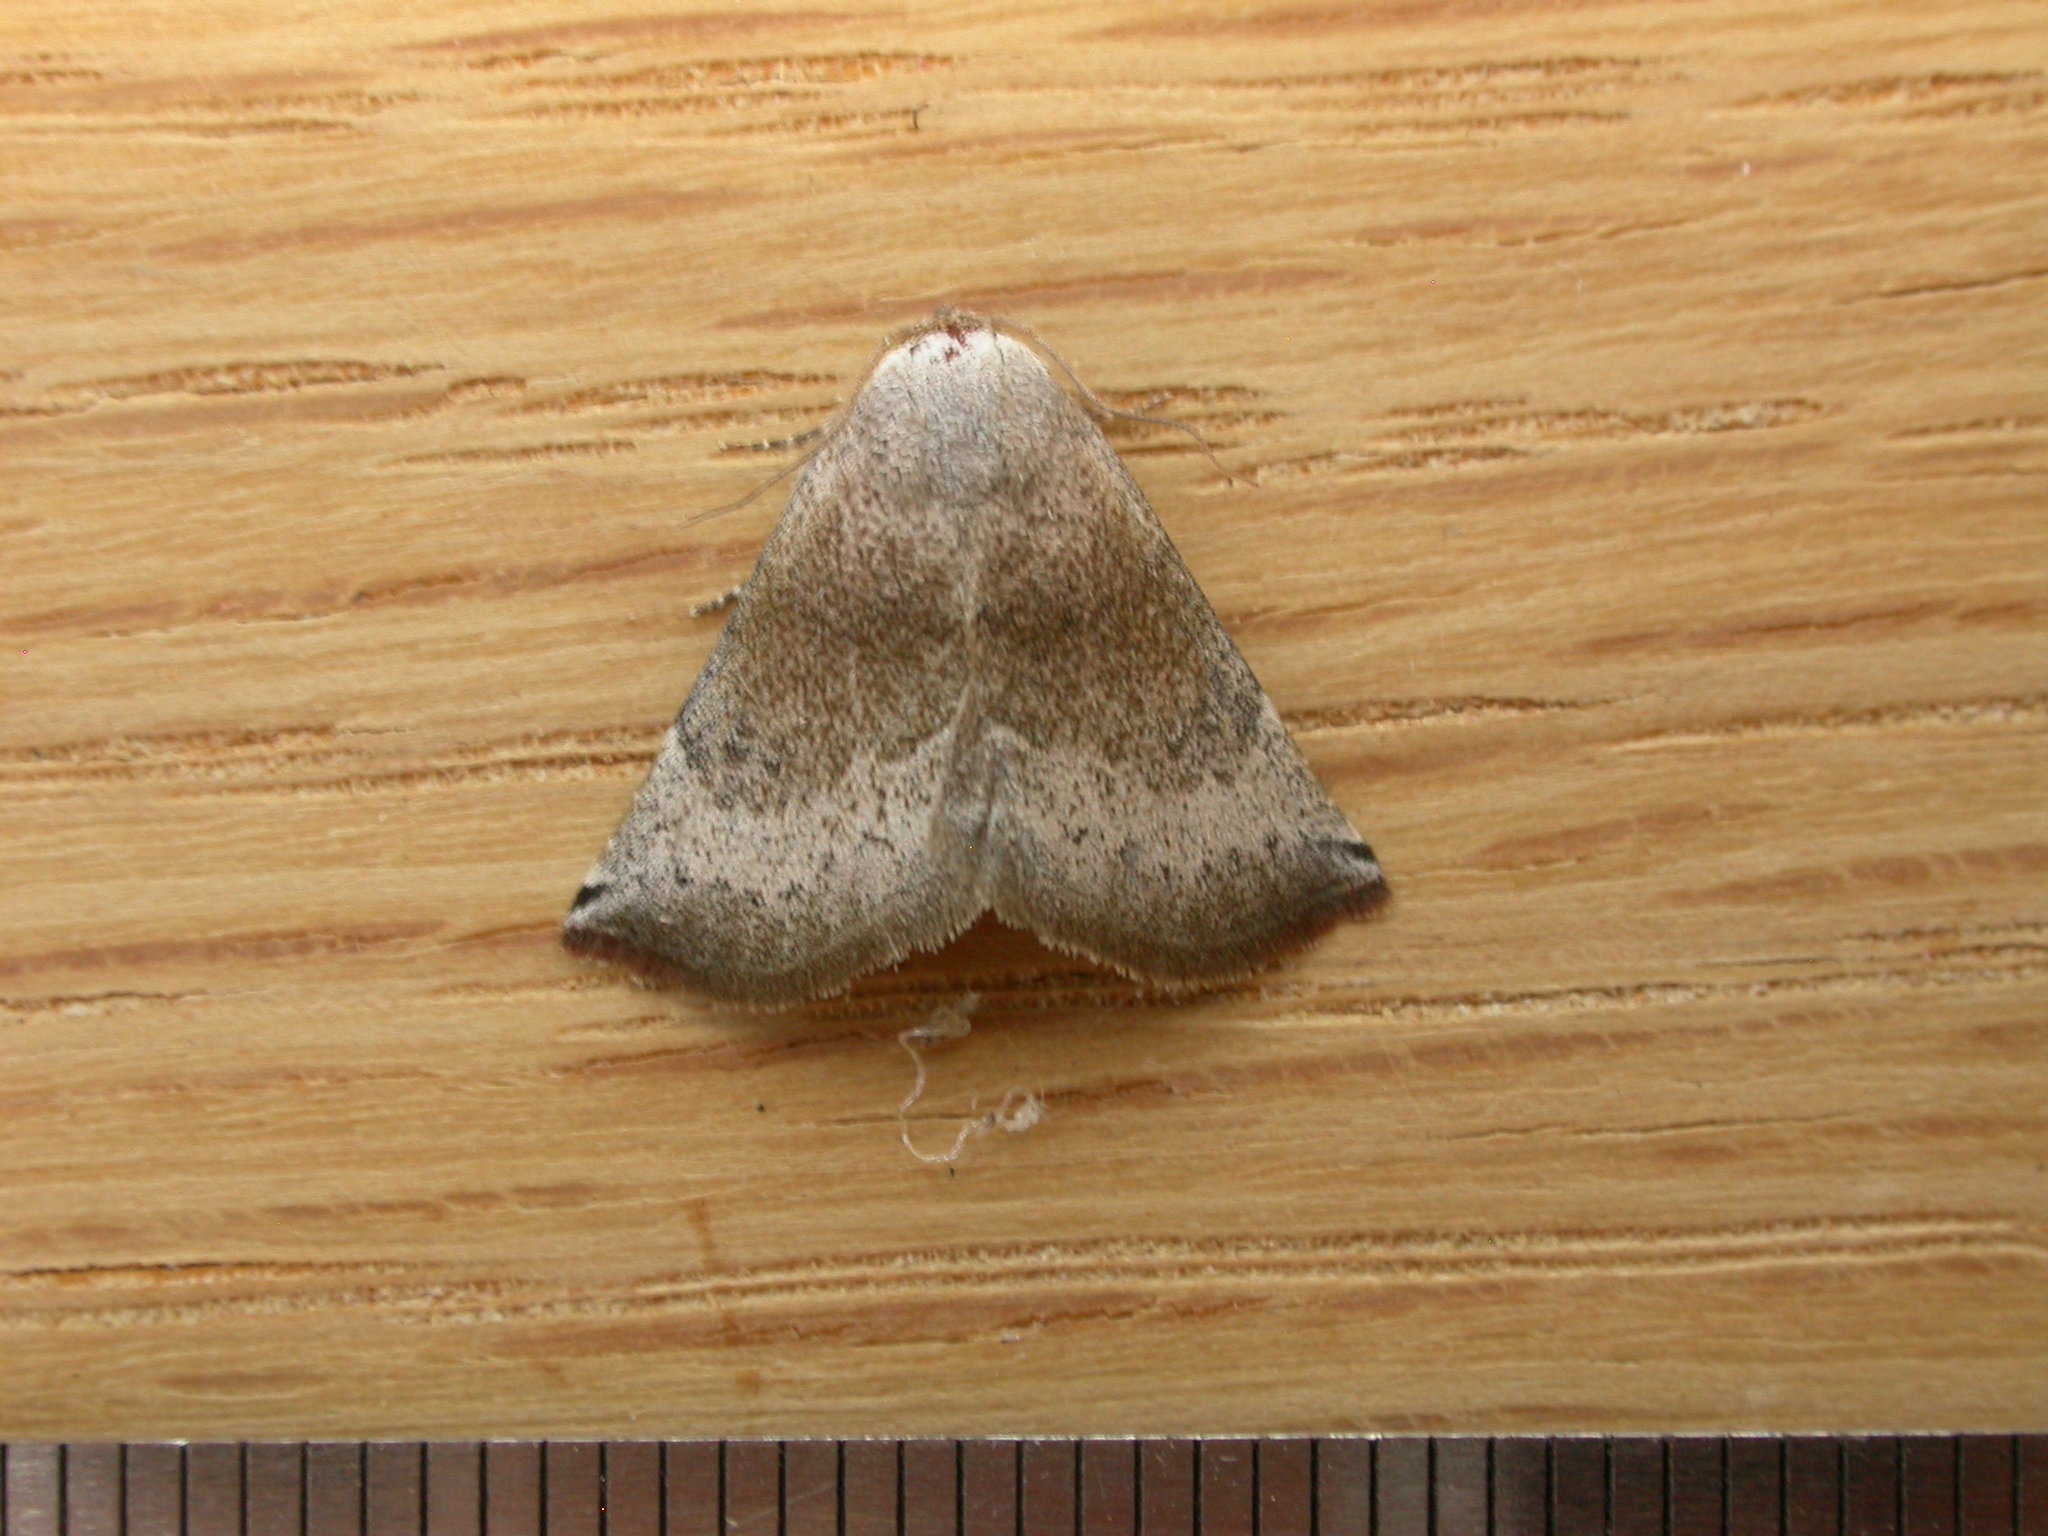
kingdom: Animalia
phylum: Arthropoda
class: Insecta
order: Lepidoptera
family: Noctuidae
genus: Mataeomera
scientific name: Mataeomera mesotaenia
